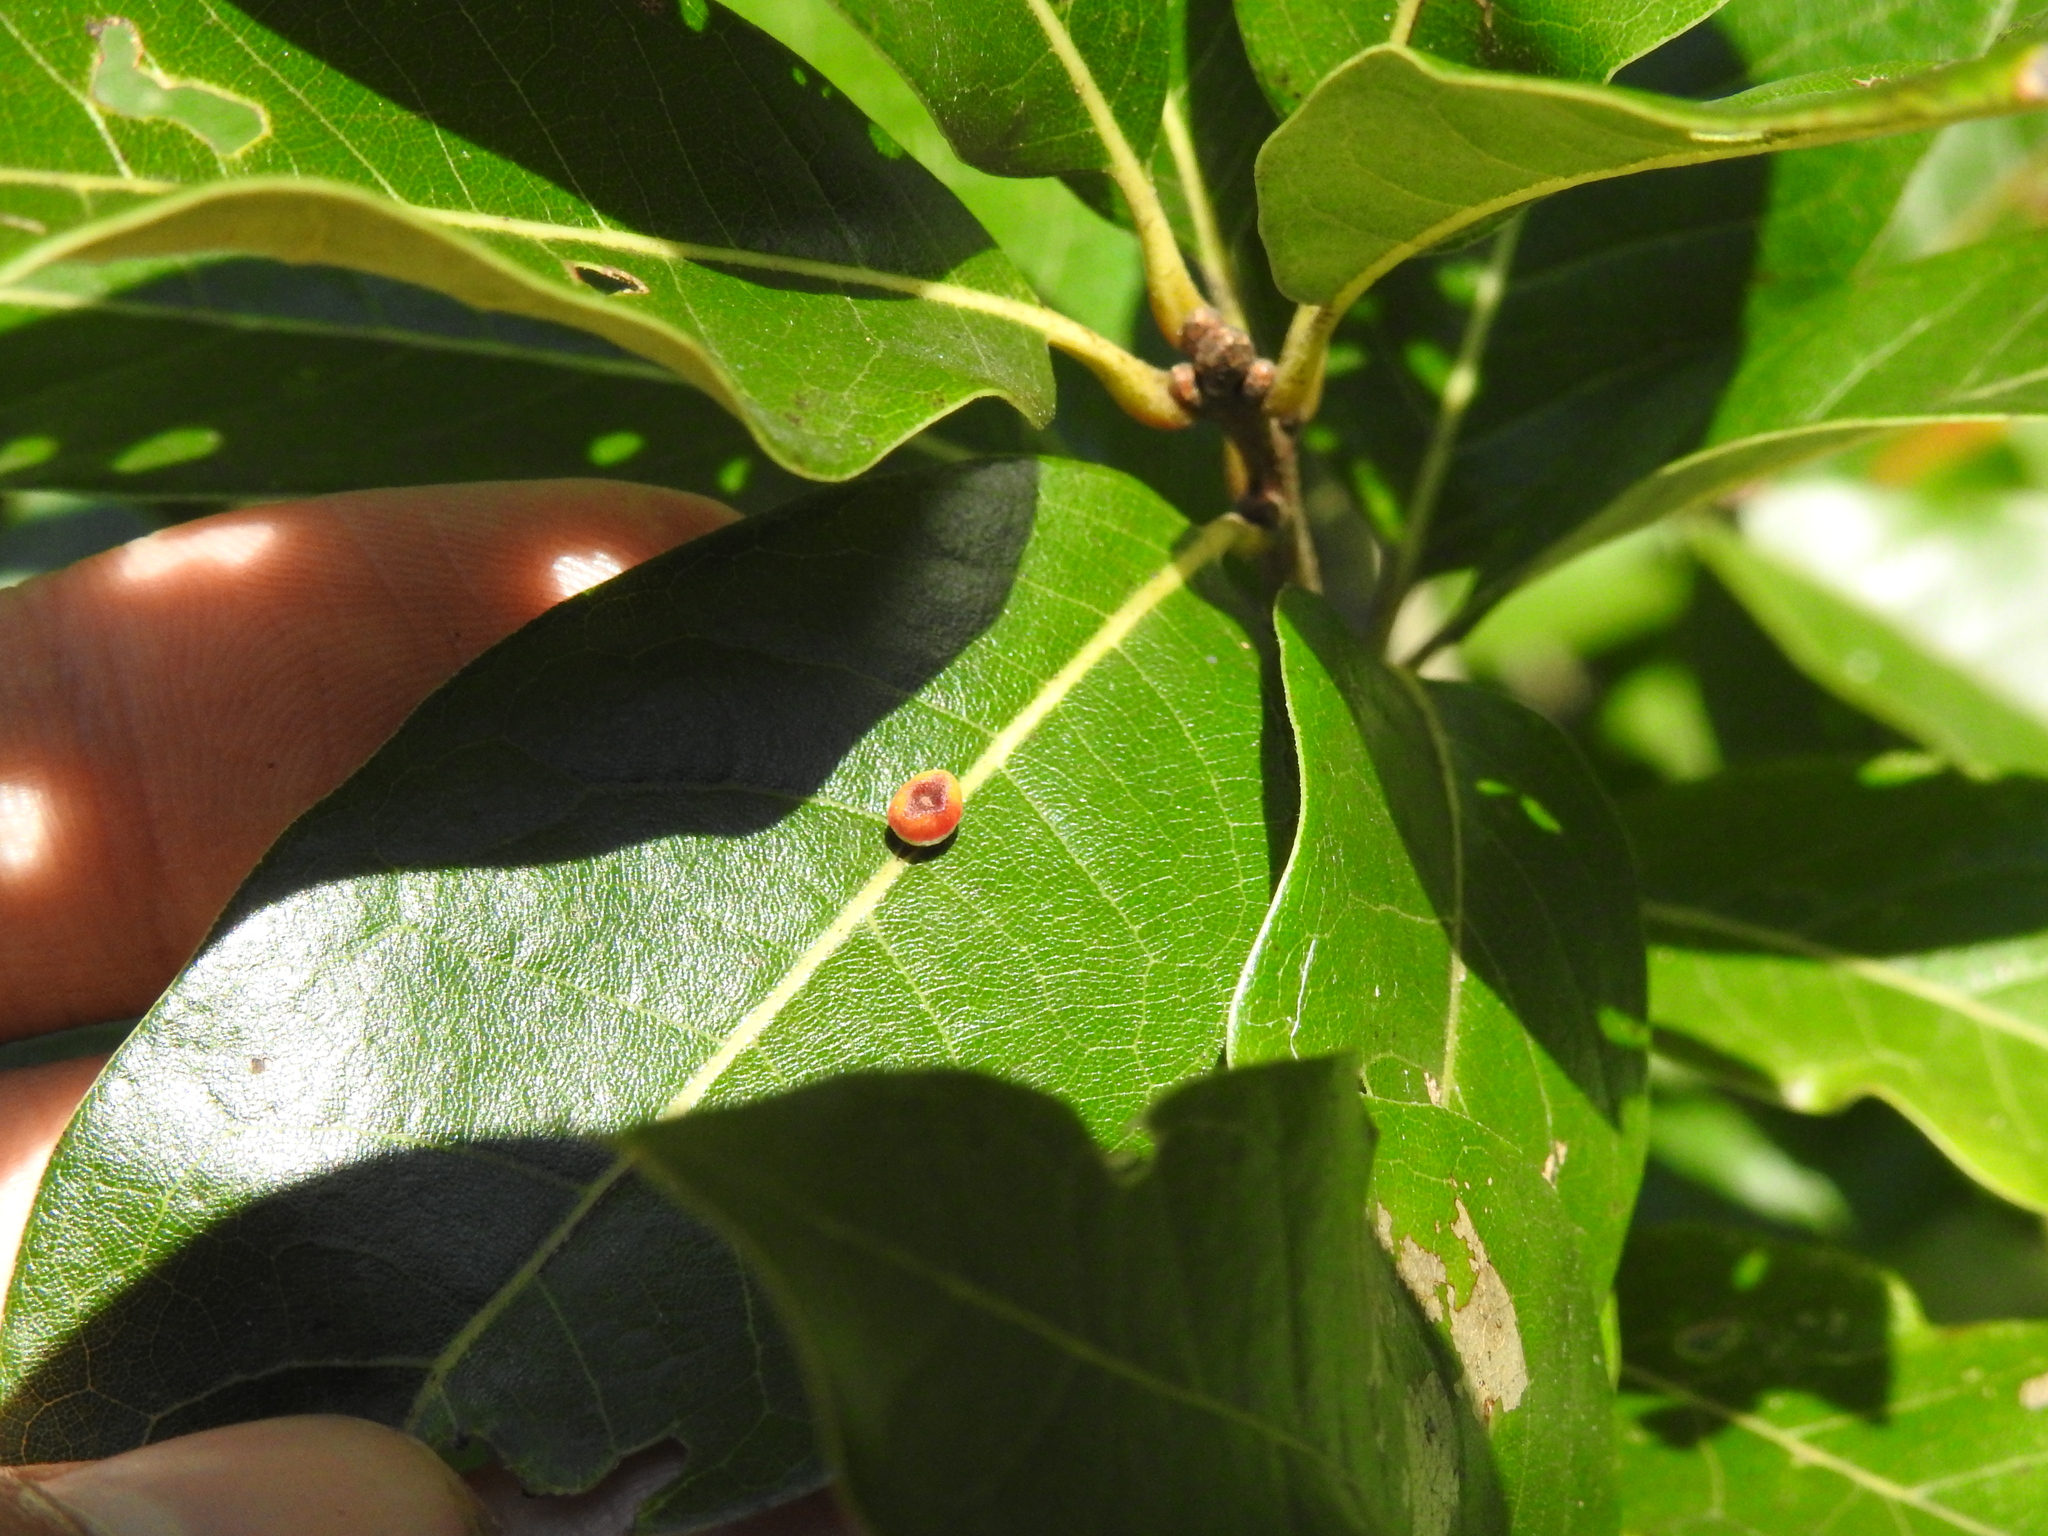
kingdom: Animalia
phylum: Arthropoda
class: Insecta
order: Hymenoptera
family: Cynipidae
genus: Kokkocynips
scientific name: Kokkocynips rileyi
